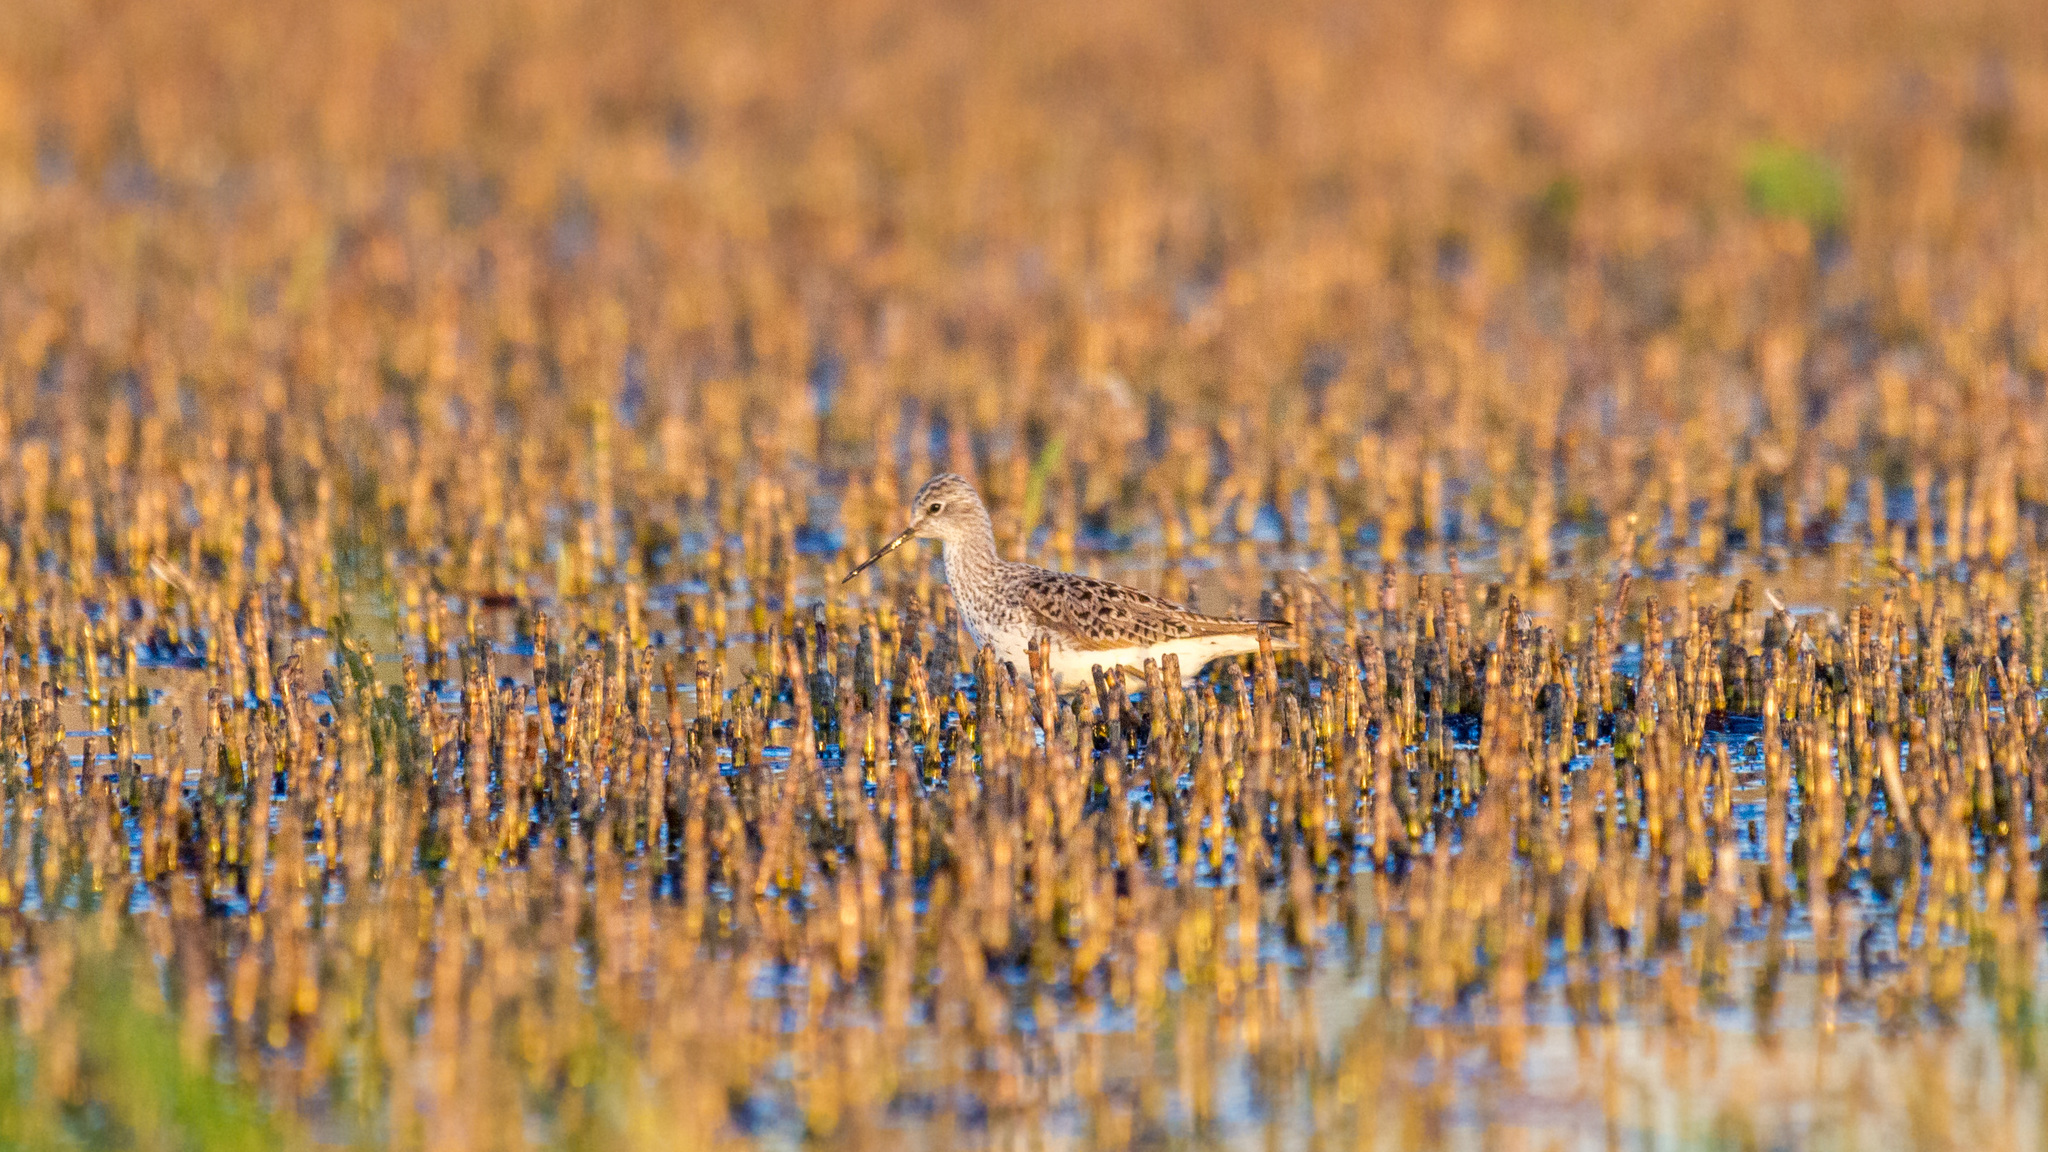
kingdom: Animalia
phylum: Chordata
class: Aves
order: Charadriiformes
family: Scolopacidae
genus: Tringa
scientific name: Tringa stagnatilis
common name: Marsh sandpiper
